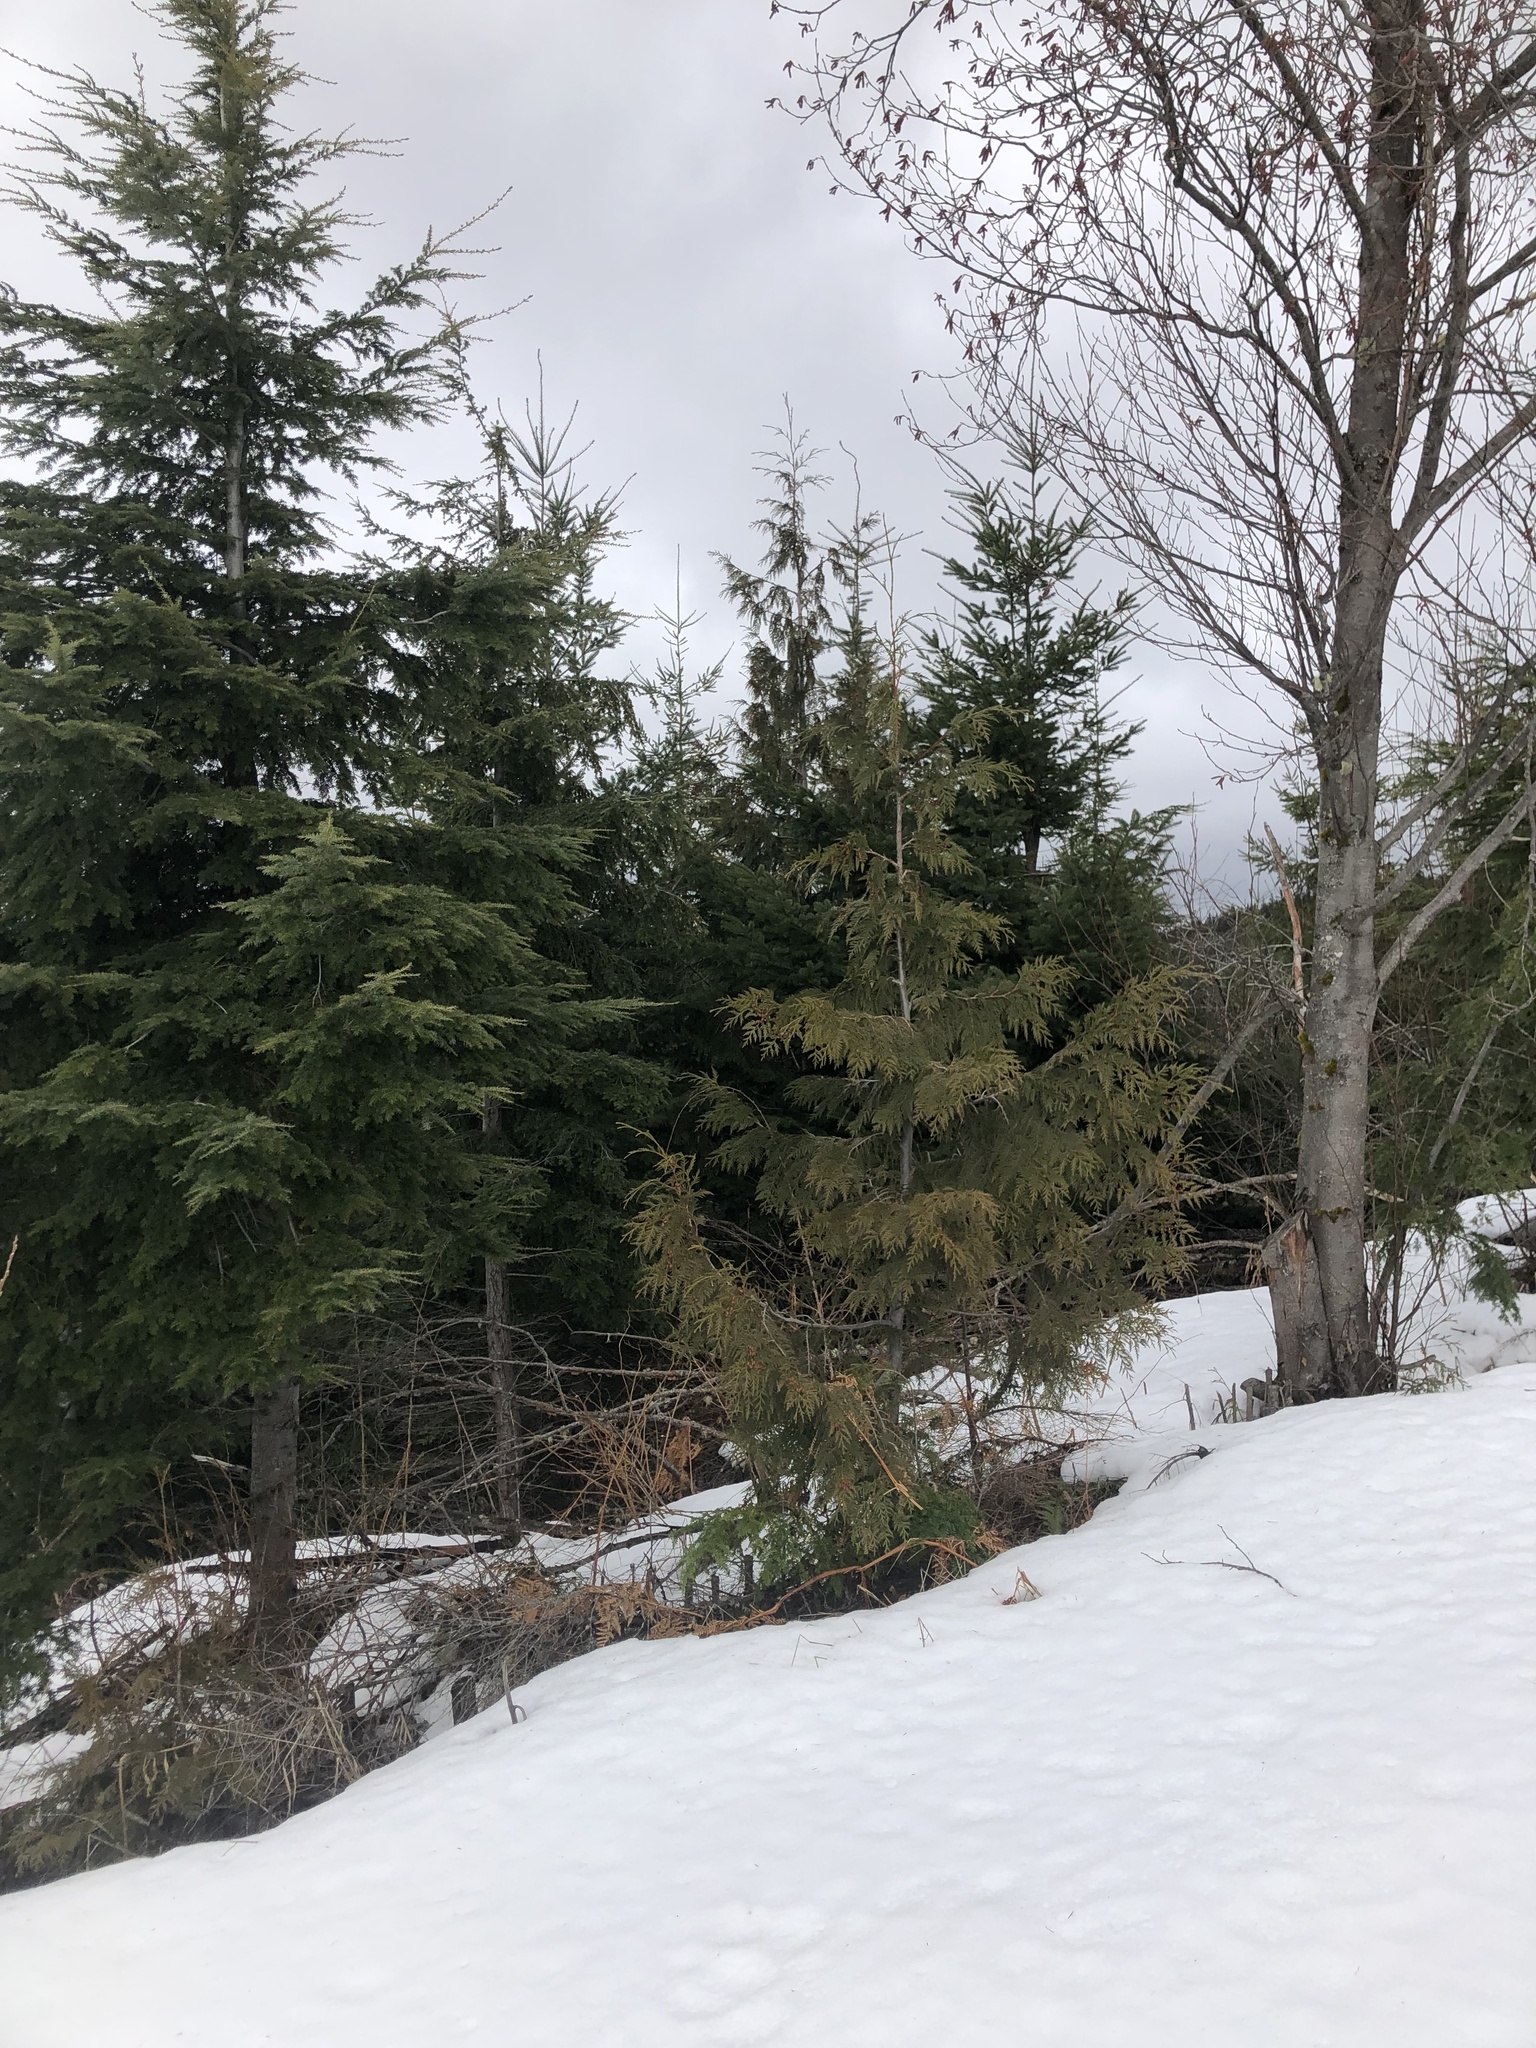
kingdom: Plantae
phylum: Tracheophyta
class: Pinopsida
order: Pinales
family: Cupressaceae
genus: Thuja
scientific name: Thuja plicata
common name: Western red-cedar
